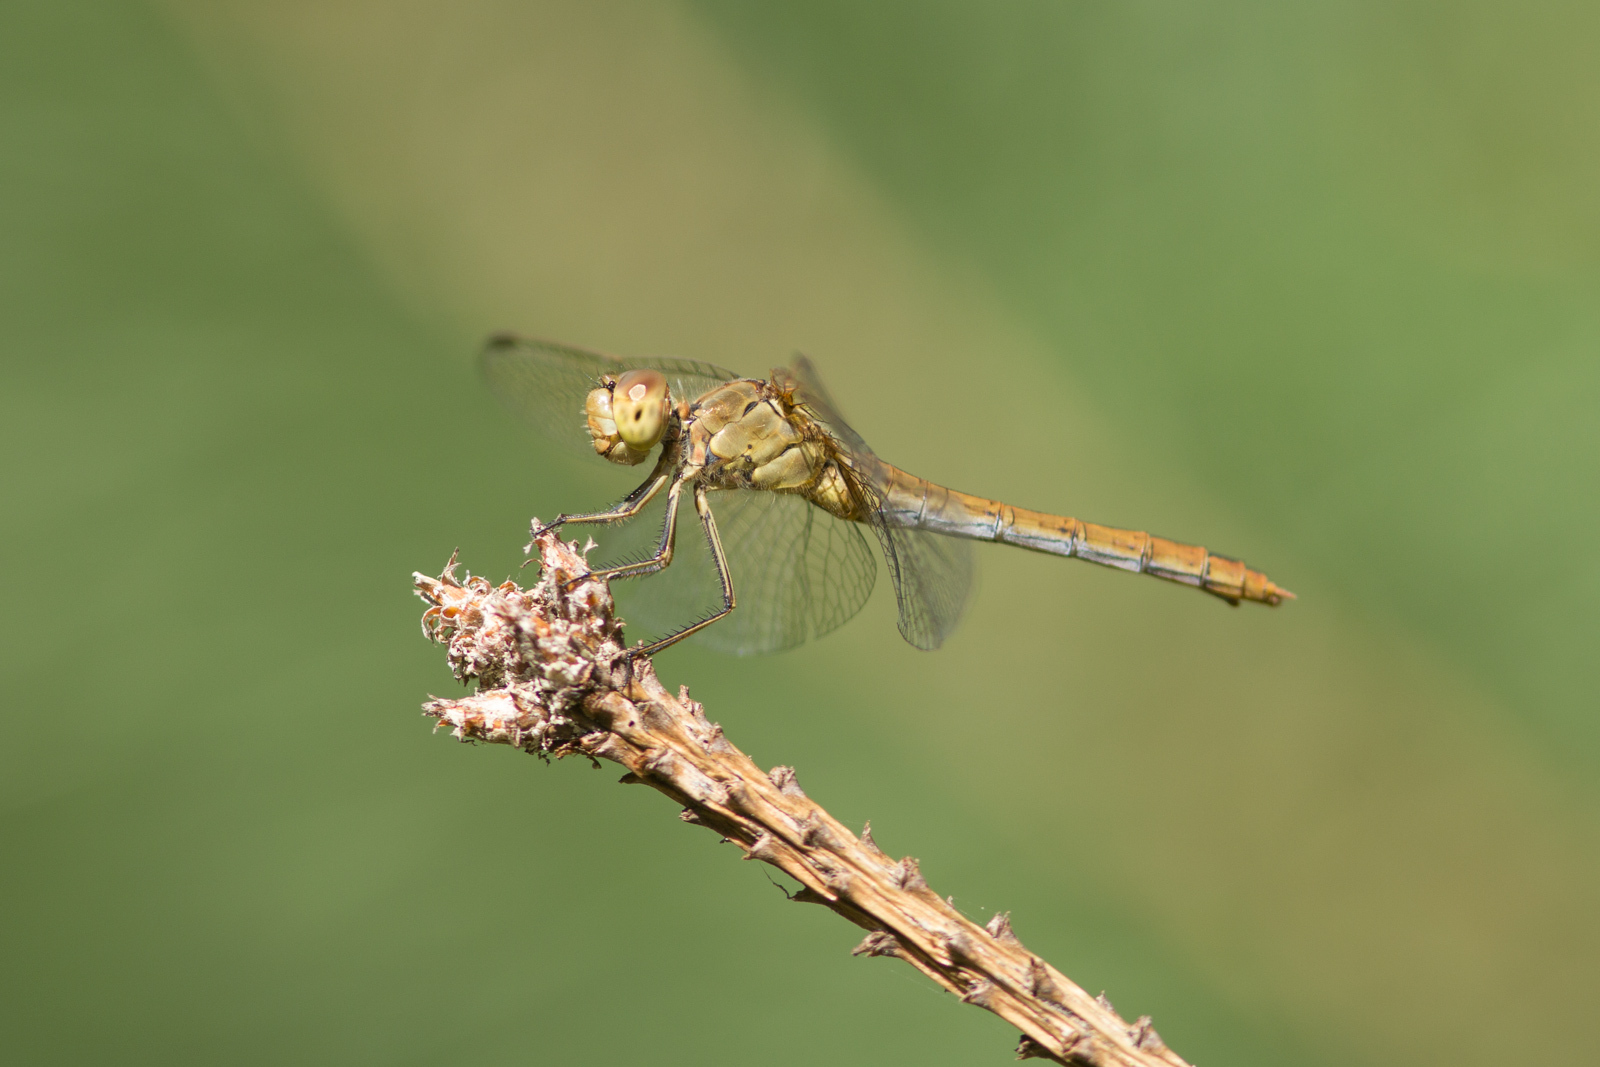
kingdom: Animalia
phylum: Arthropoda
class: Insecta
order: Odonata
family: Libellulidae
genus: Sympetrum
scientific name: Sympetrum meridionale
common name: Southern darter
